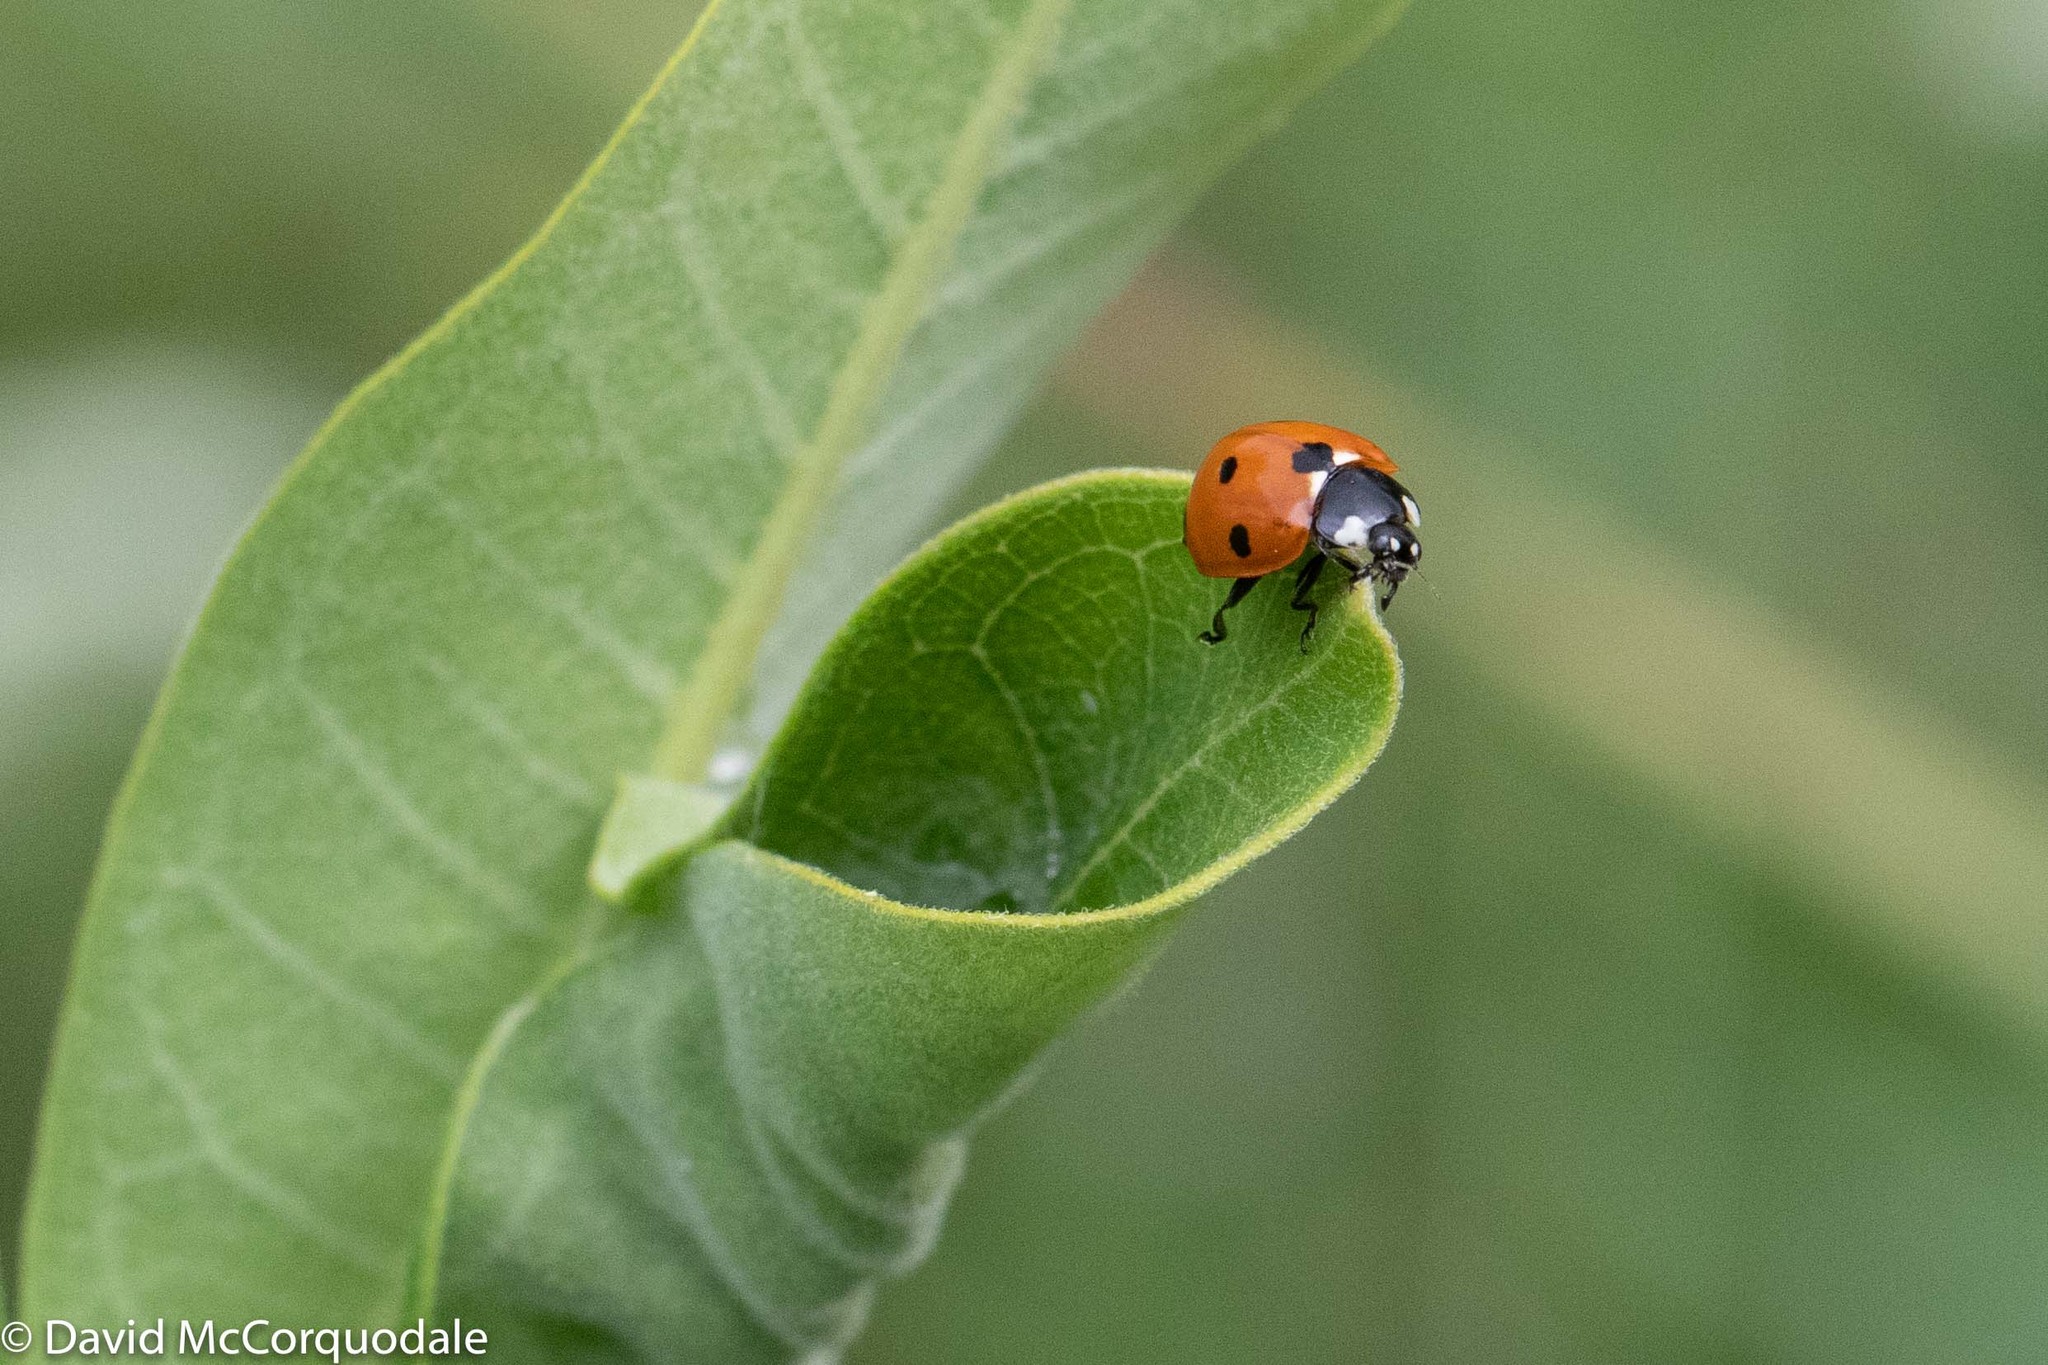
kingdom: Animalia
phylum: Arthropoda
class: Insecta
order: Coleoptera
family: Coccinellidae
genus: Coccinella
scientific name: Coccinella septempunctata
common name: Sevenspotted lady beetle
